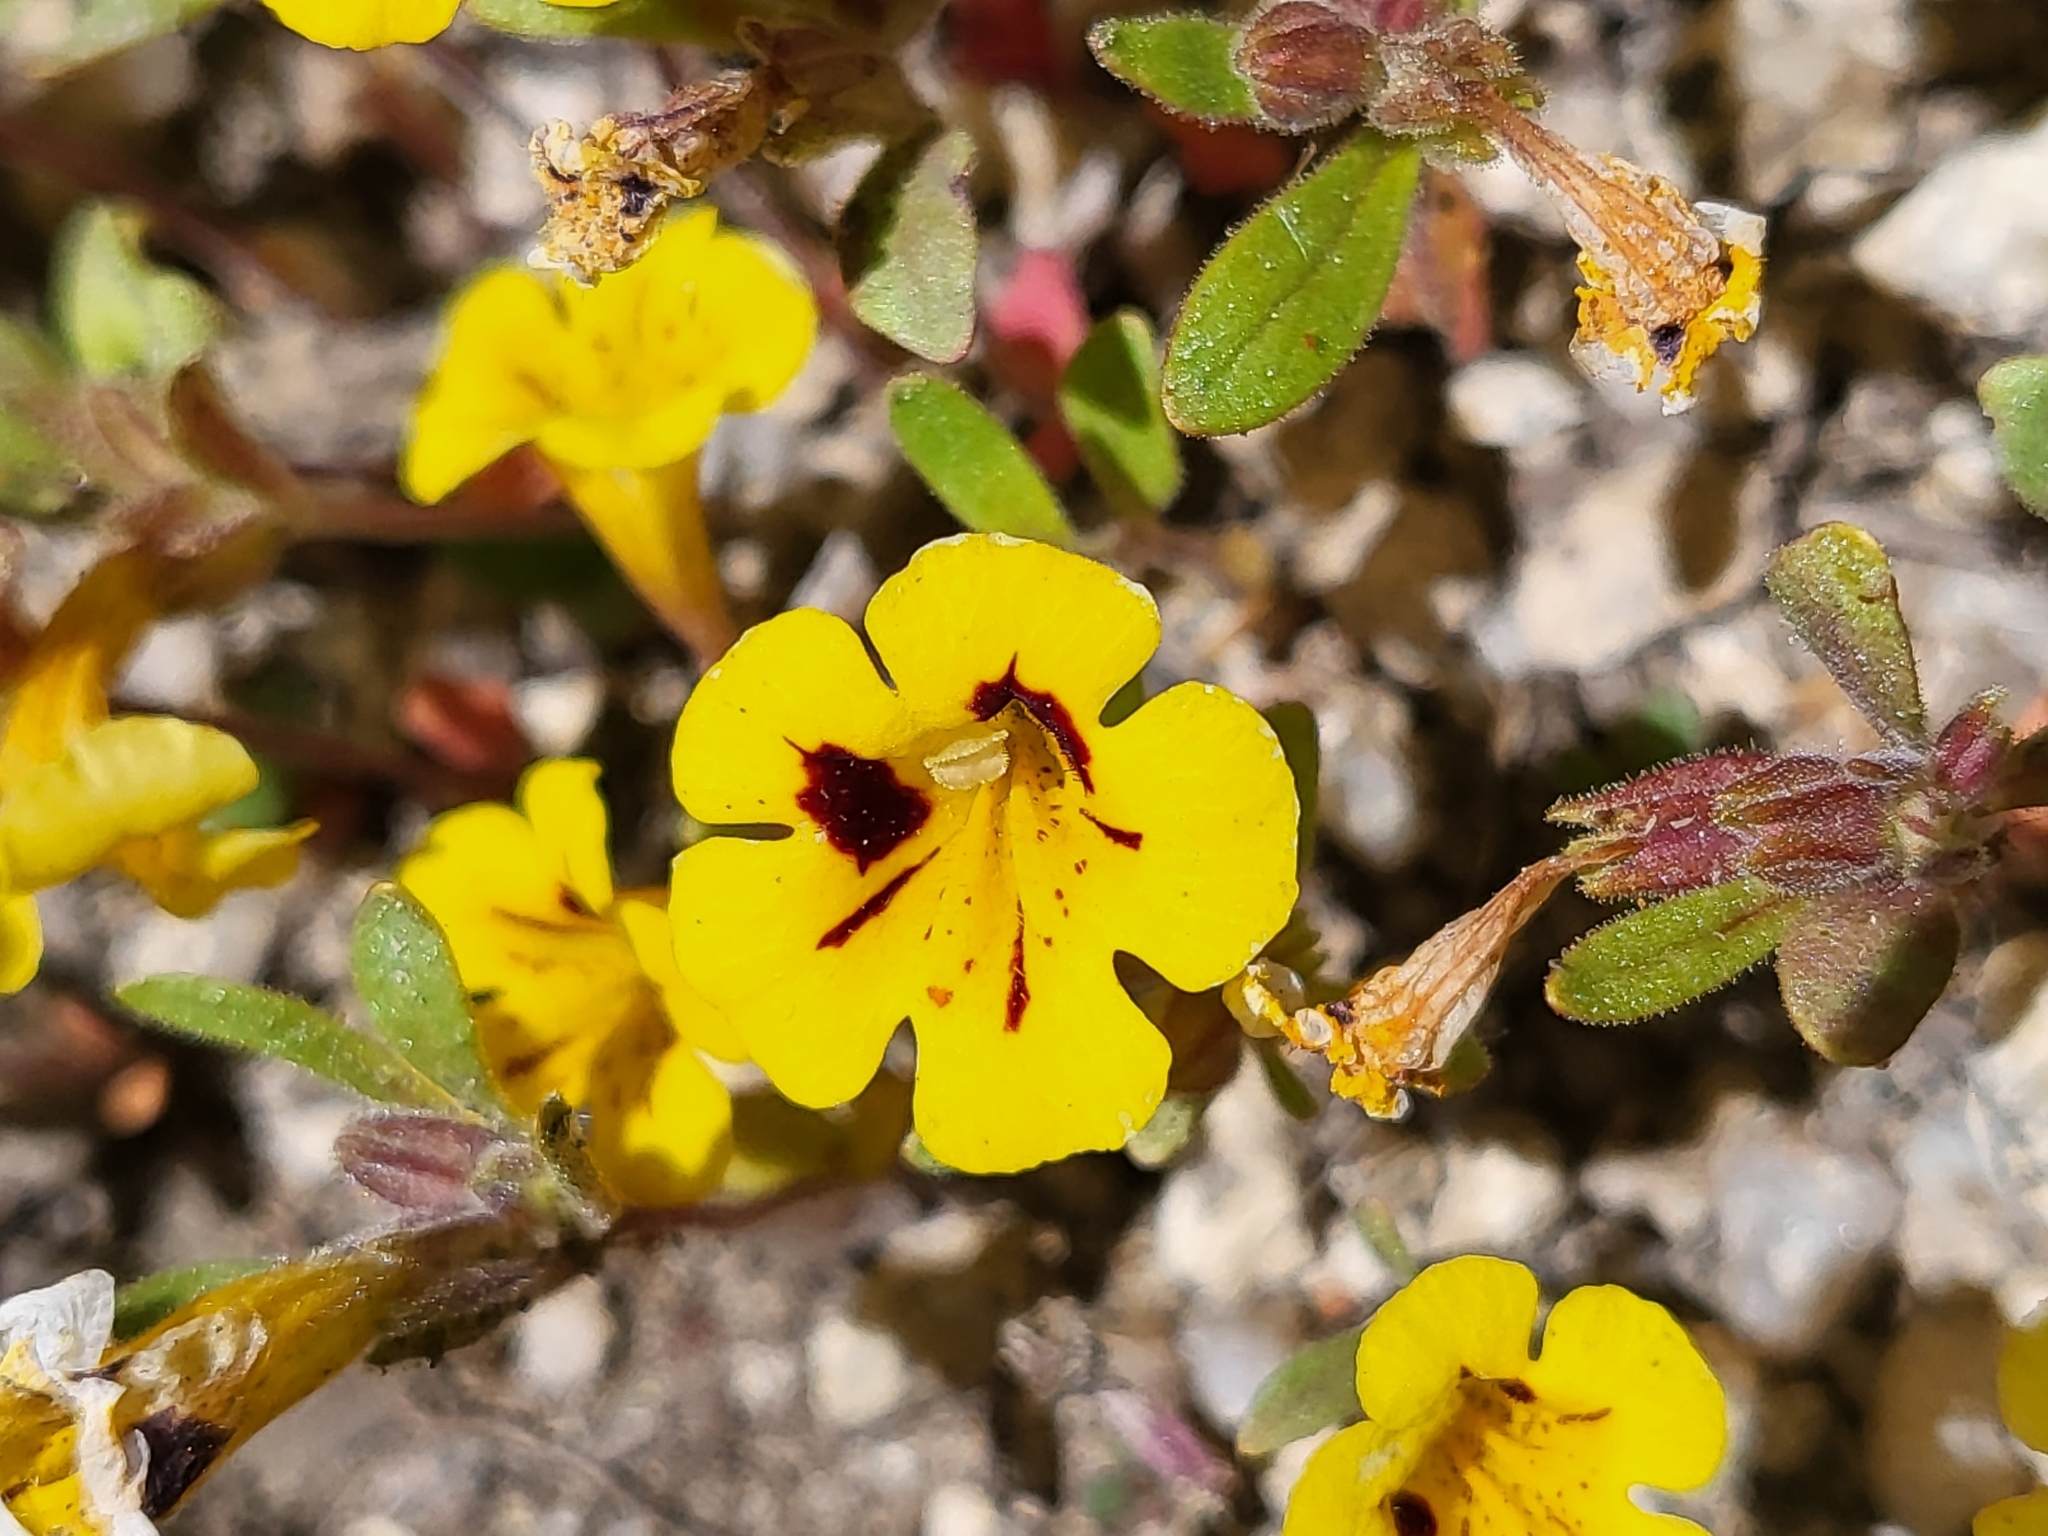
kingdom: Plantae
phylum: Tracheophyta
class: Magnoliopsida
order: Lamiales
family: Phrymaceae
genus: Diplacus
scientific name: Diplacus bicolor
